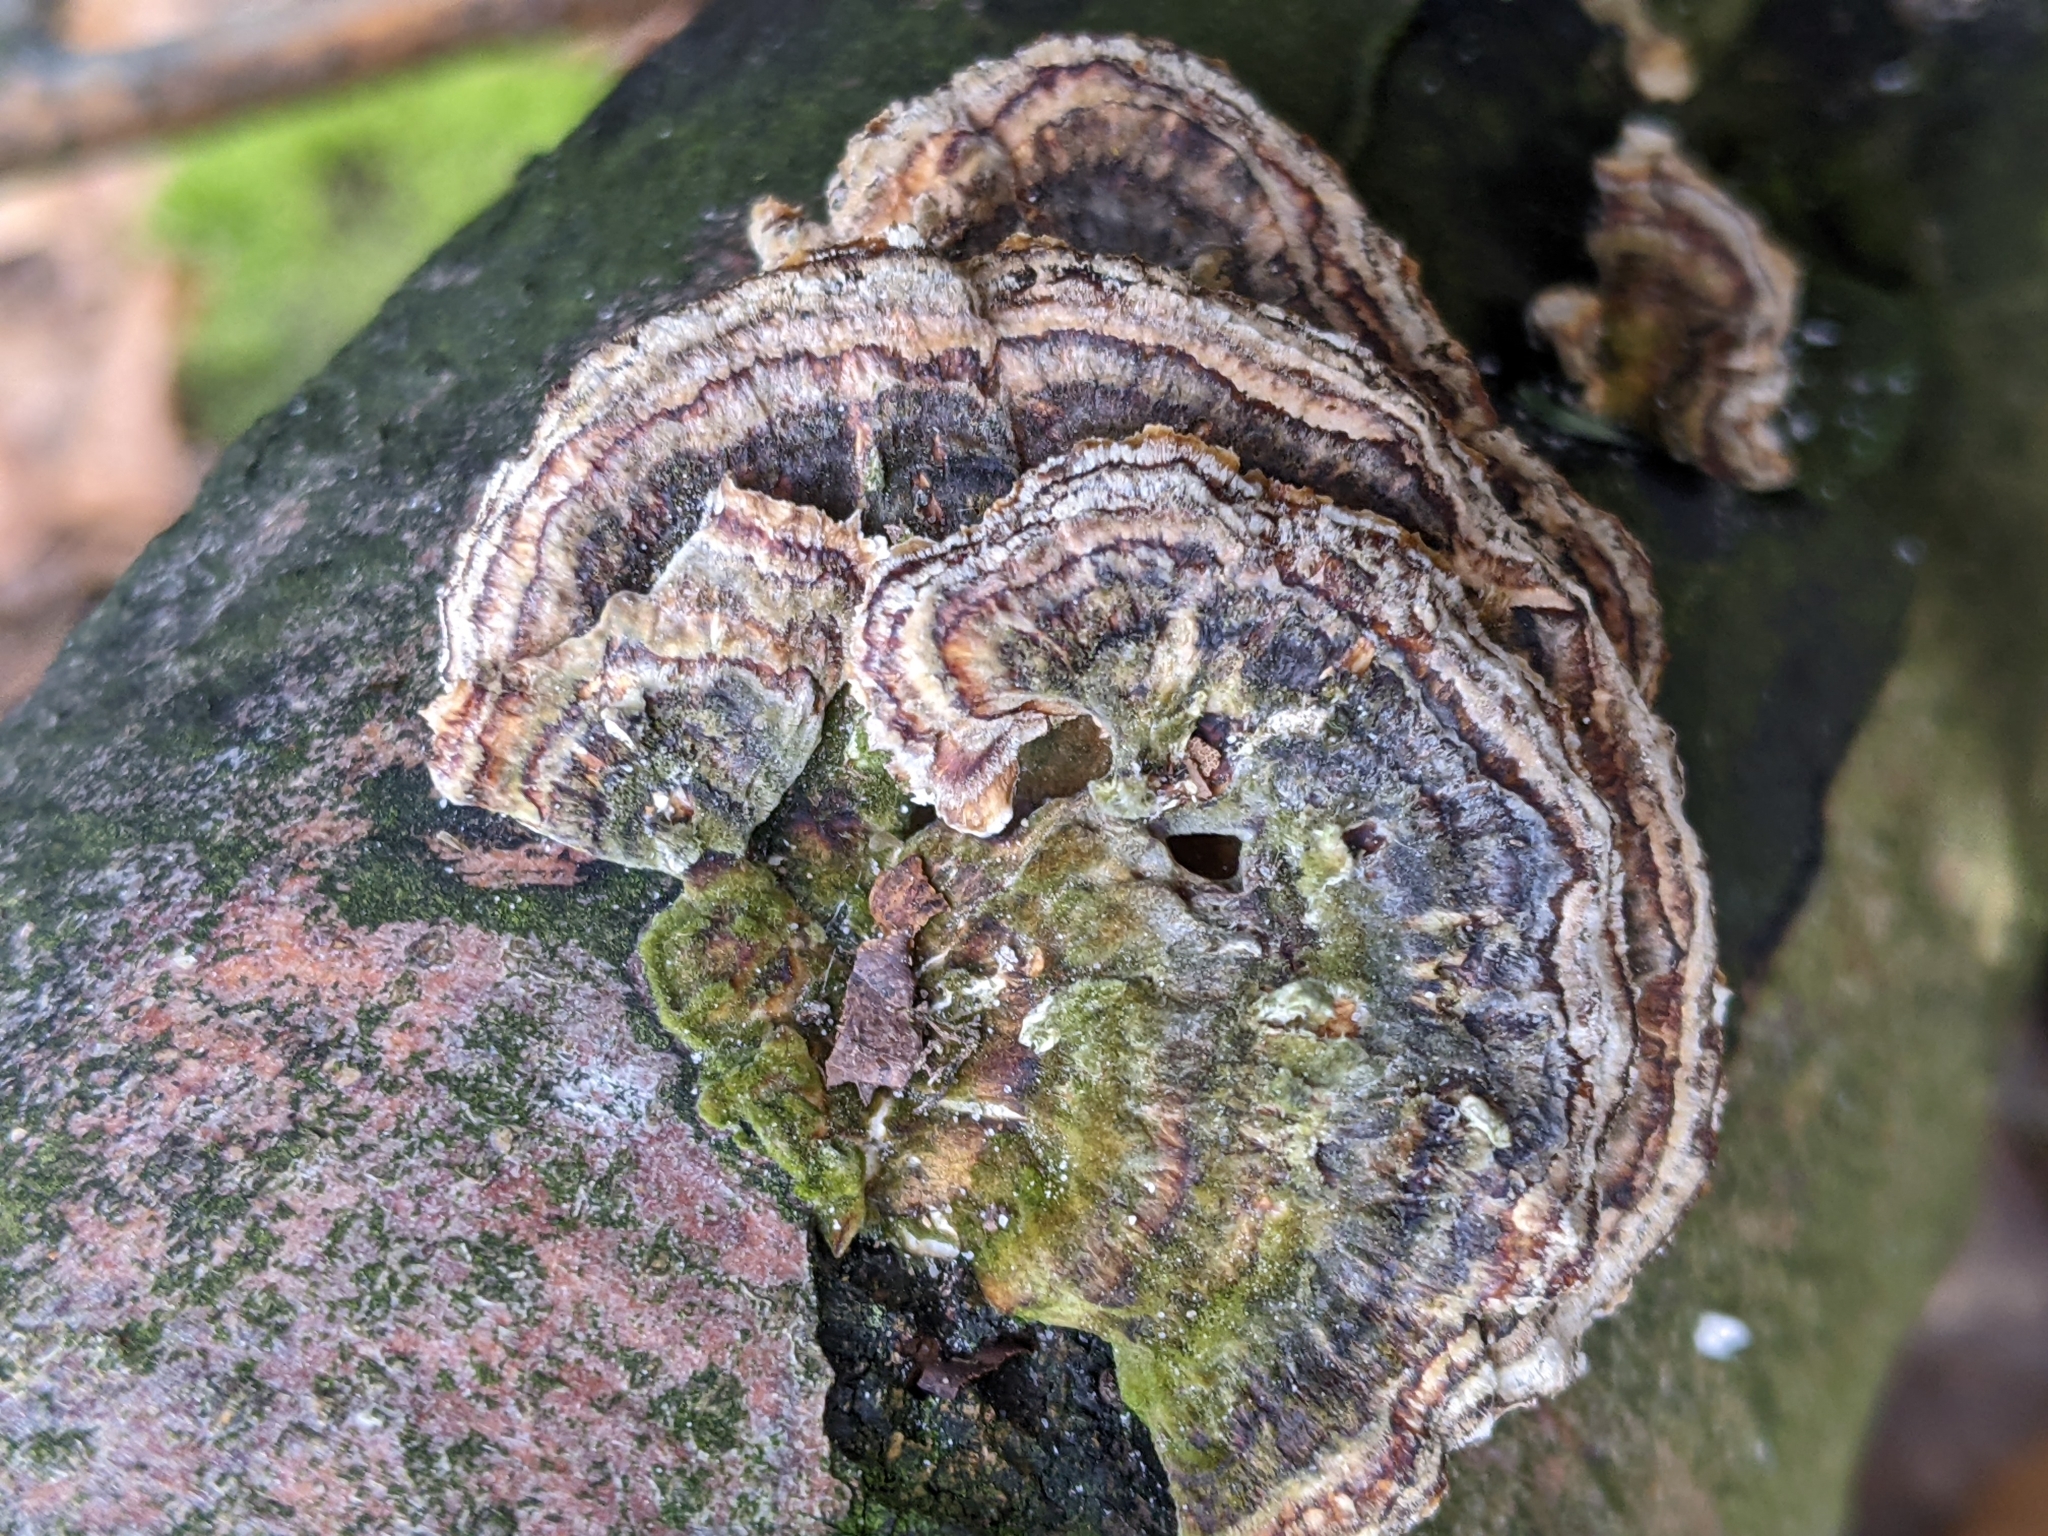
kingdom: Fungi
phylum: Basidiomycota
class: Agaricomycetes
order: Polyporales
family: Polyporaceae
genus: Trametes
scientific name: Trametes versicolor
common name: Turkeytail
